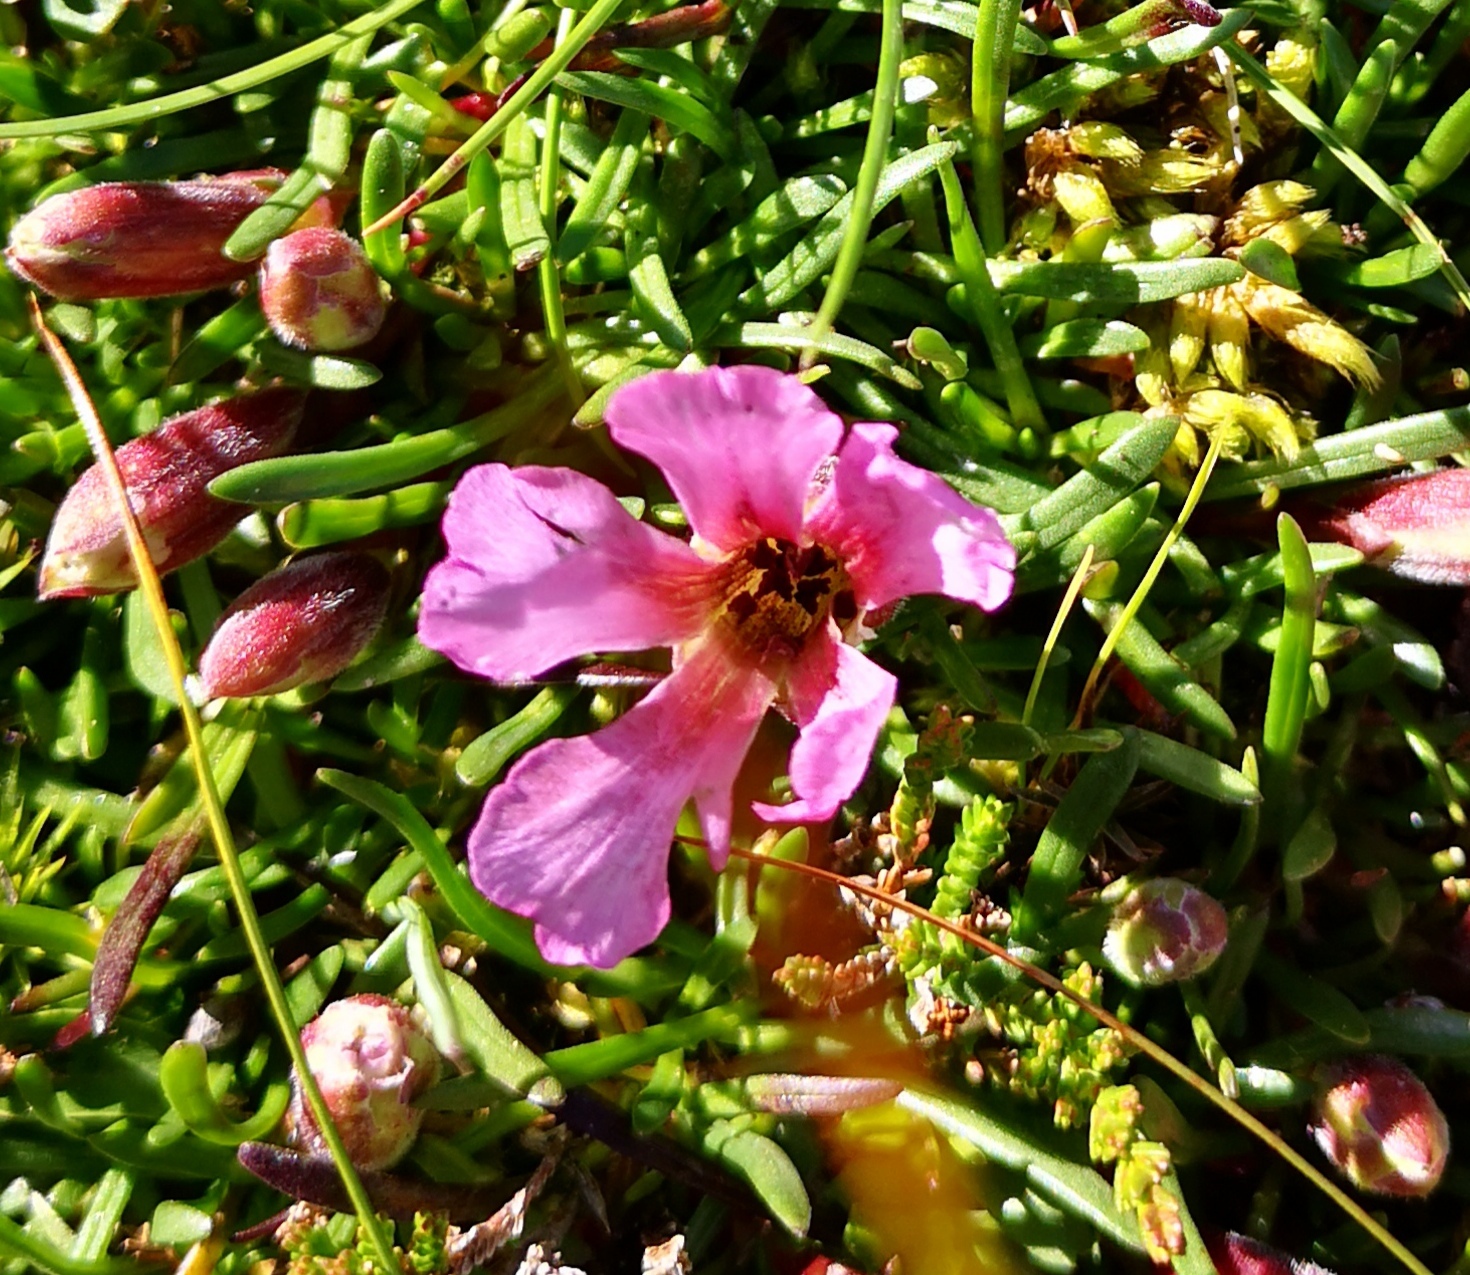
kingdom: Plantae
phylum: Tracheophyta
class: Magnoliopsida
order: Caryophyllales
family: Caryophyllaceae
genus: Saponaria
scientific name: Saponaria pumila
